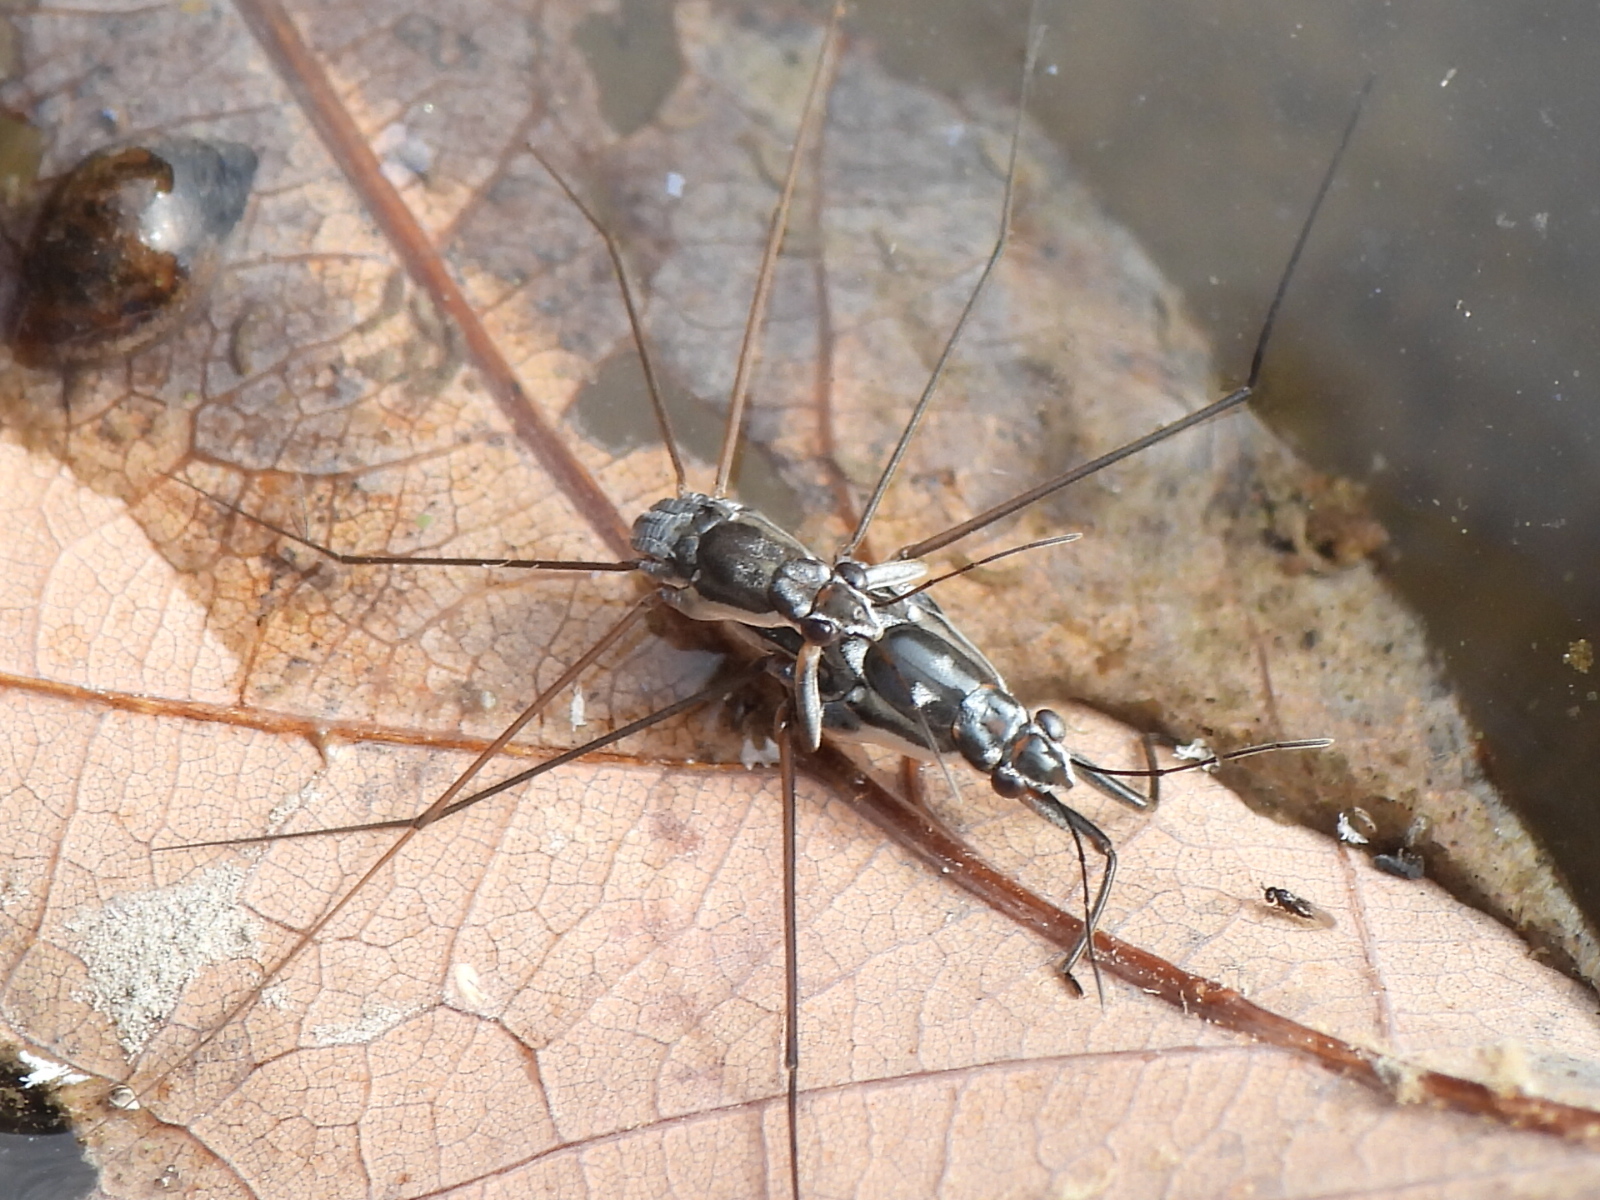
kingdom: Animalia
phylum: Arthropoda
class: Insecta
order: Hemiptera
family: Gerridae
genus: Neogerris
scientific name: Neogerris hesione
